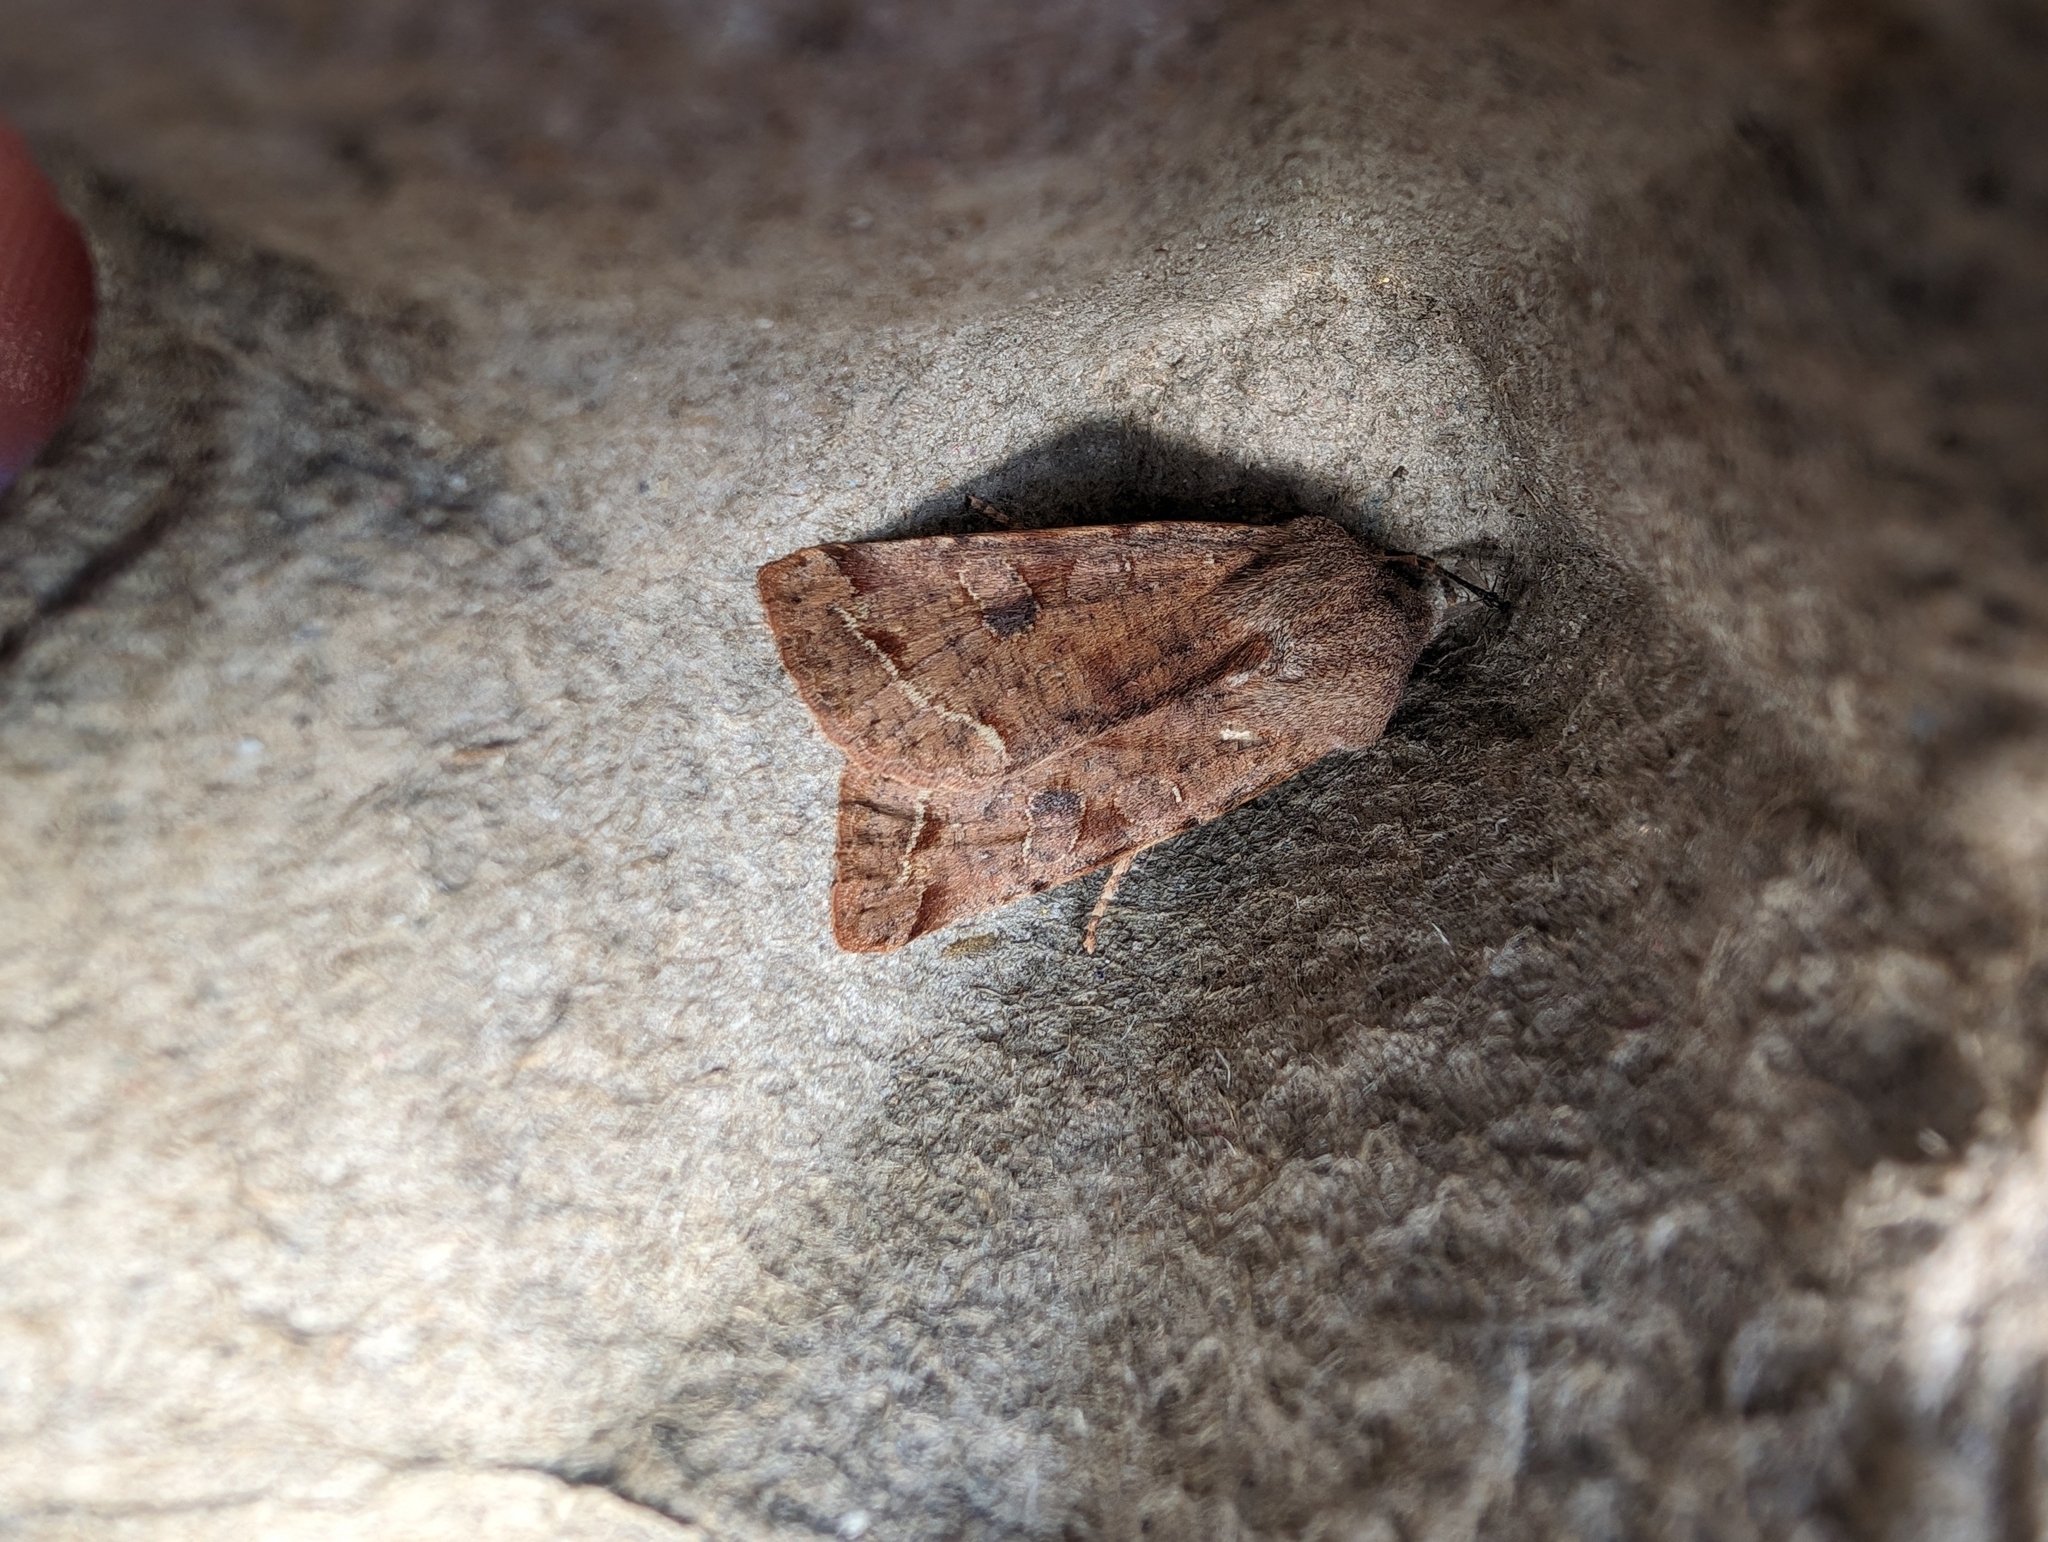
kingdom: Animalia
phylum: Arthropoda
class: Insecta
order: Lepidoptera
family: Noctuidae
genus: Orthosia
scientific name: Orthosia incerta
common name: Clouded drab
